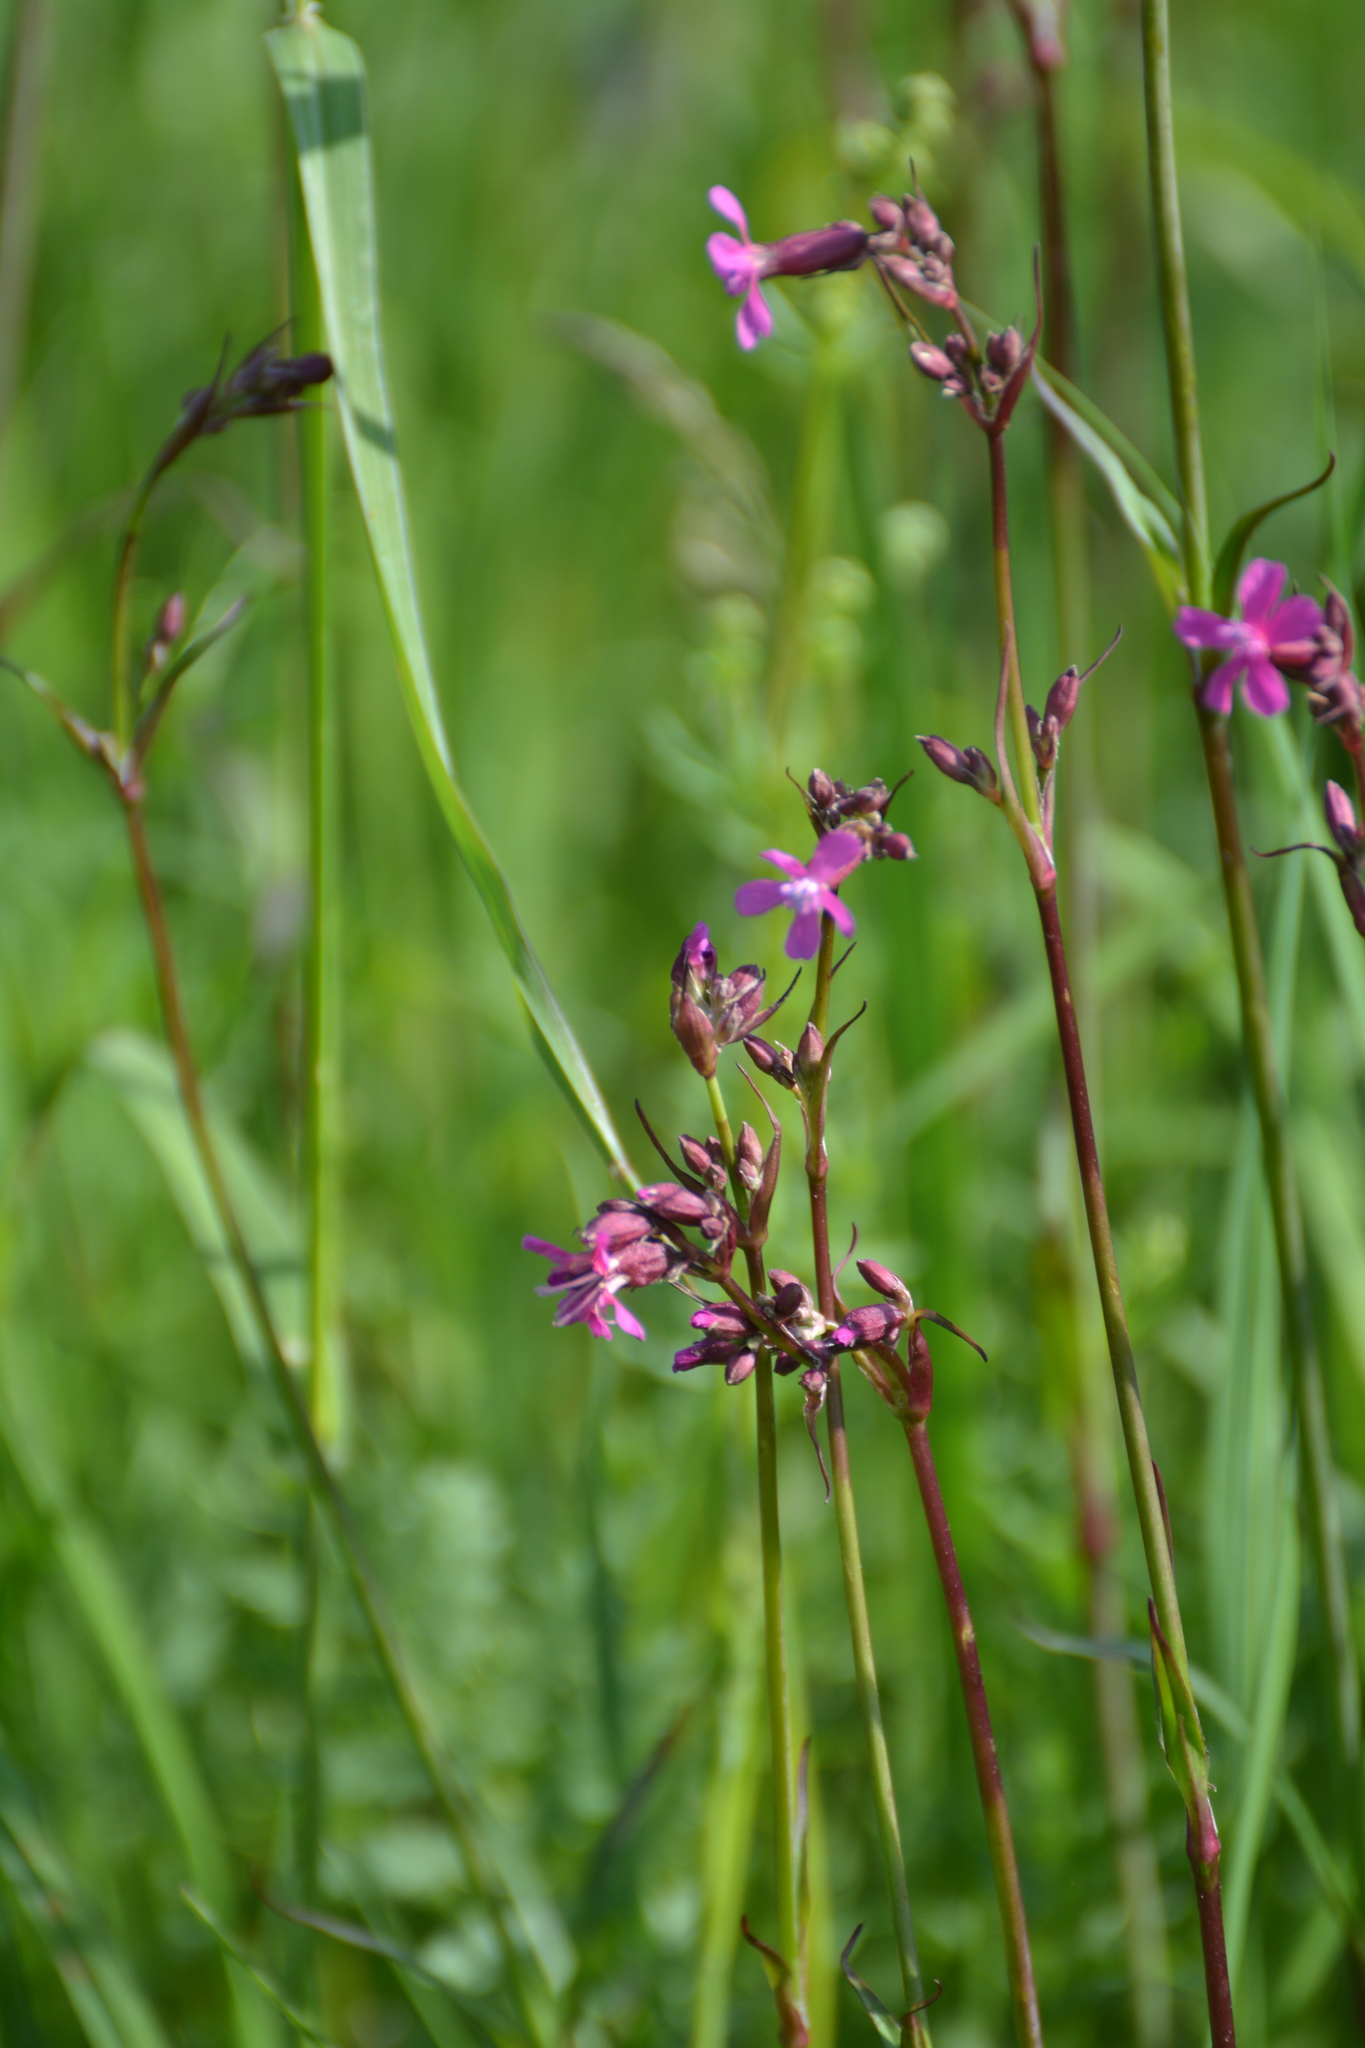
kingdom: Plantae
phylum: Tracheophyta
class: Magnoliopsida
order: Caryophyllales
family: Caryophyllaceae
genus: Viscaria
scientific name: Viscaria vulgaris
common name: Clammy campion
